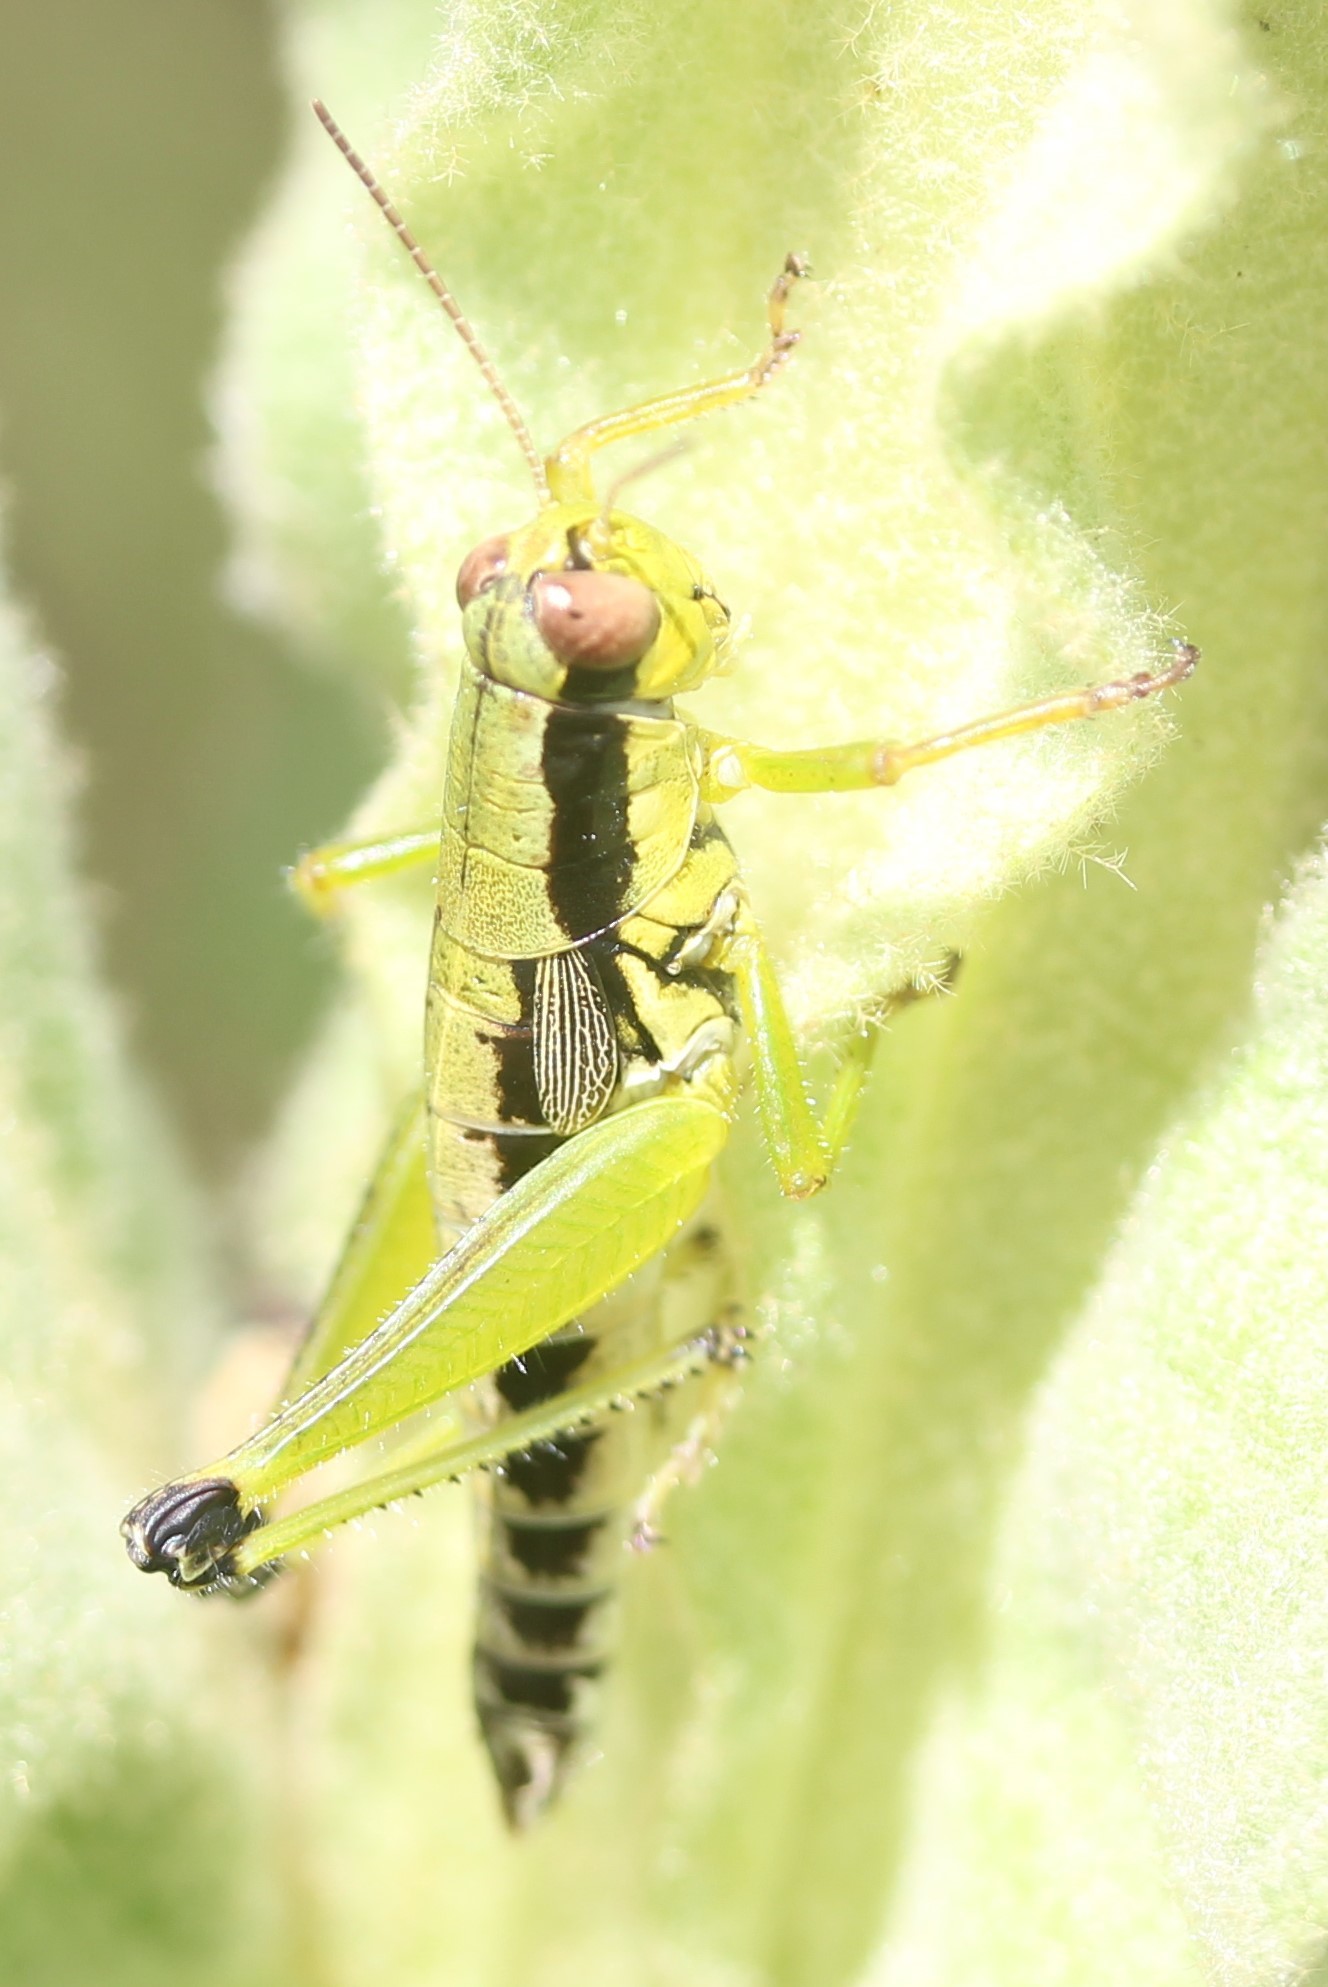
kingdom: Animalia
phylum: Arthropoda
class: Insecta
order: Orthoptera
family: Acrididae
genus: Melanoplus
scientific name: Melanoplus gracilis
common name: Graceful narrow-winged locust
